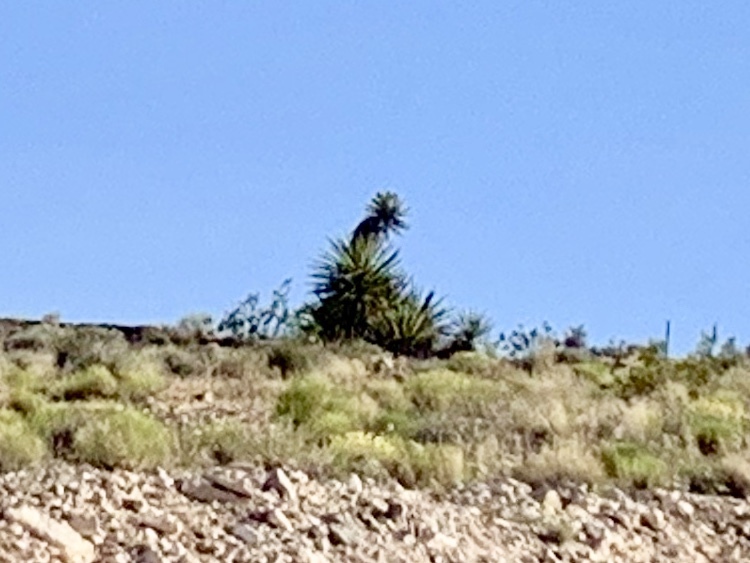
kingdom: Plantae
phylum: Tracheophyta
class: Liliopsida
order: Asparagales
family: Asparagaceae
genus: Yucca
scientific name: Yucca schidigera
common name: Mojave yucca
